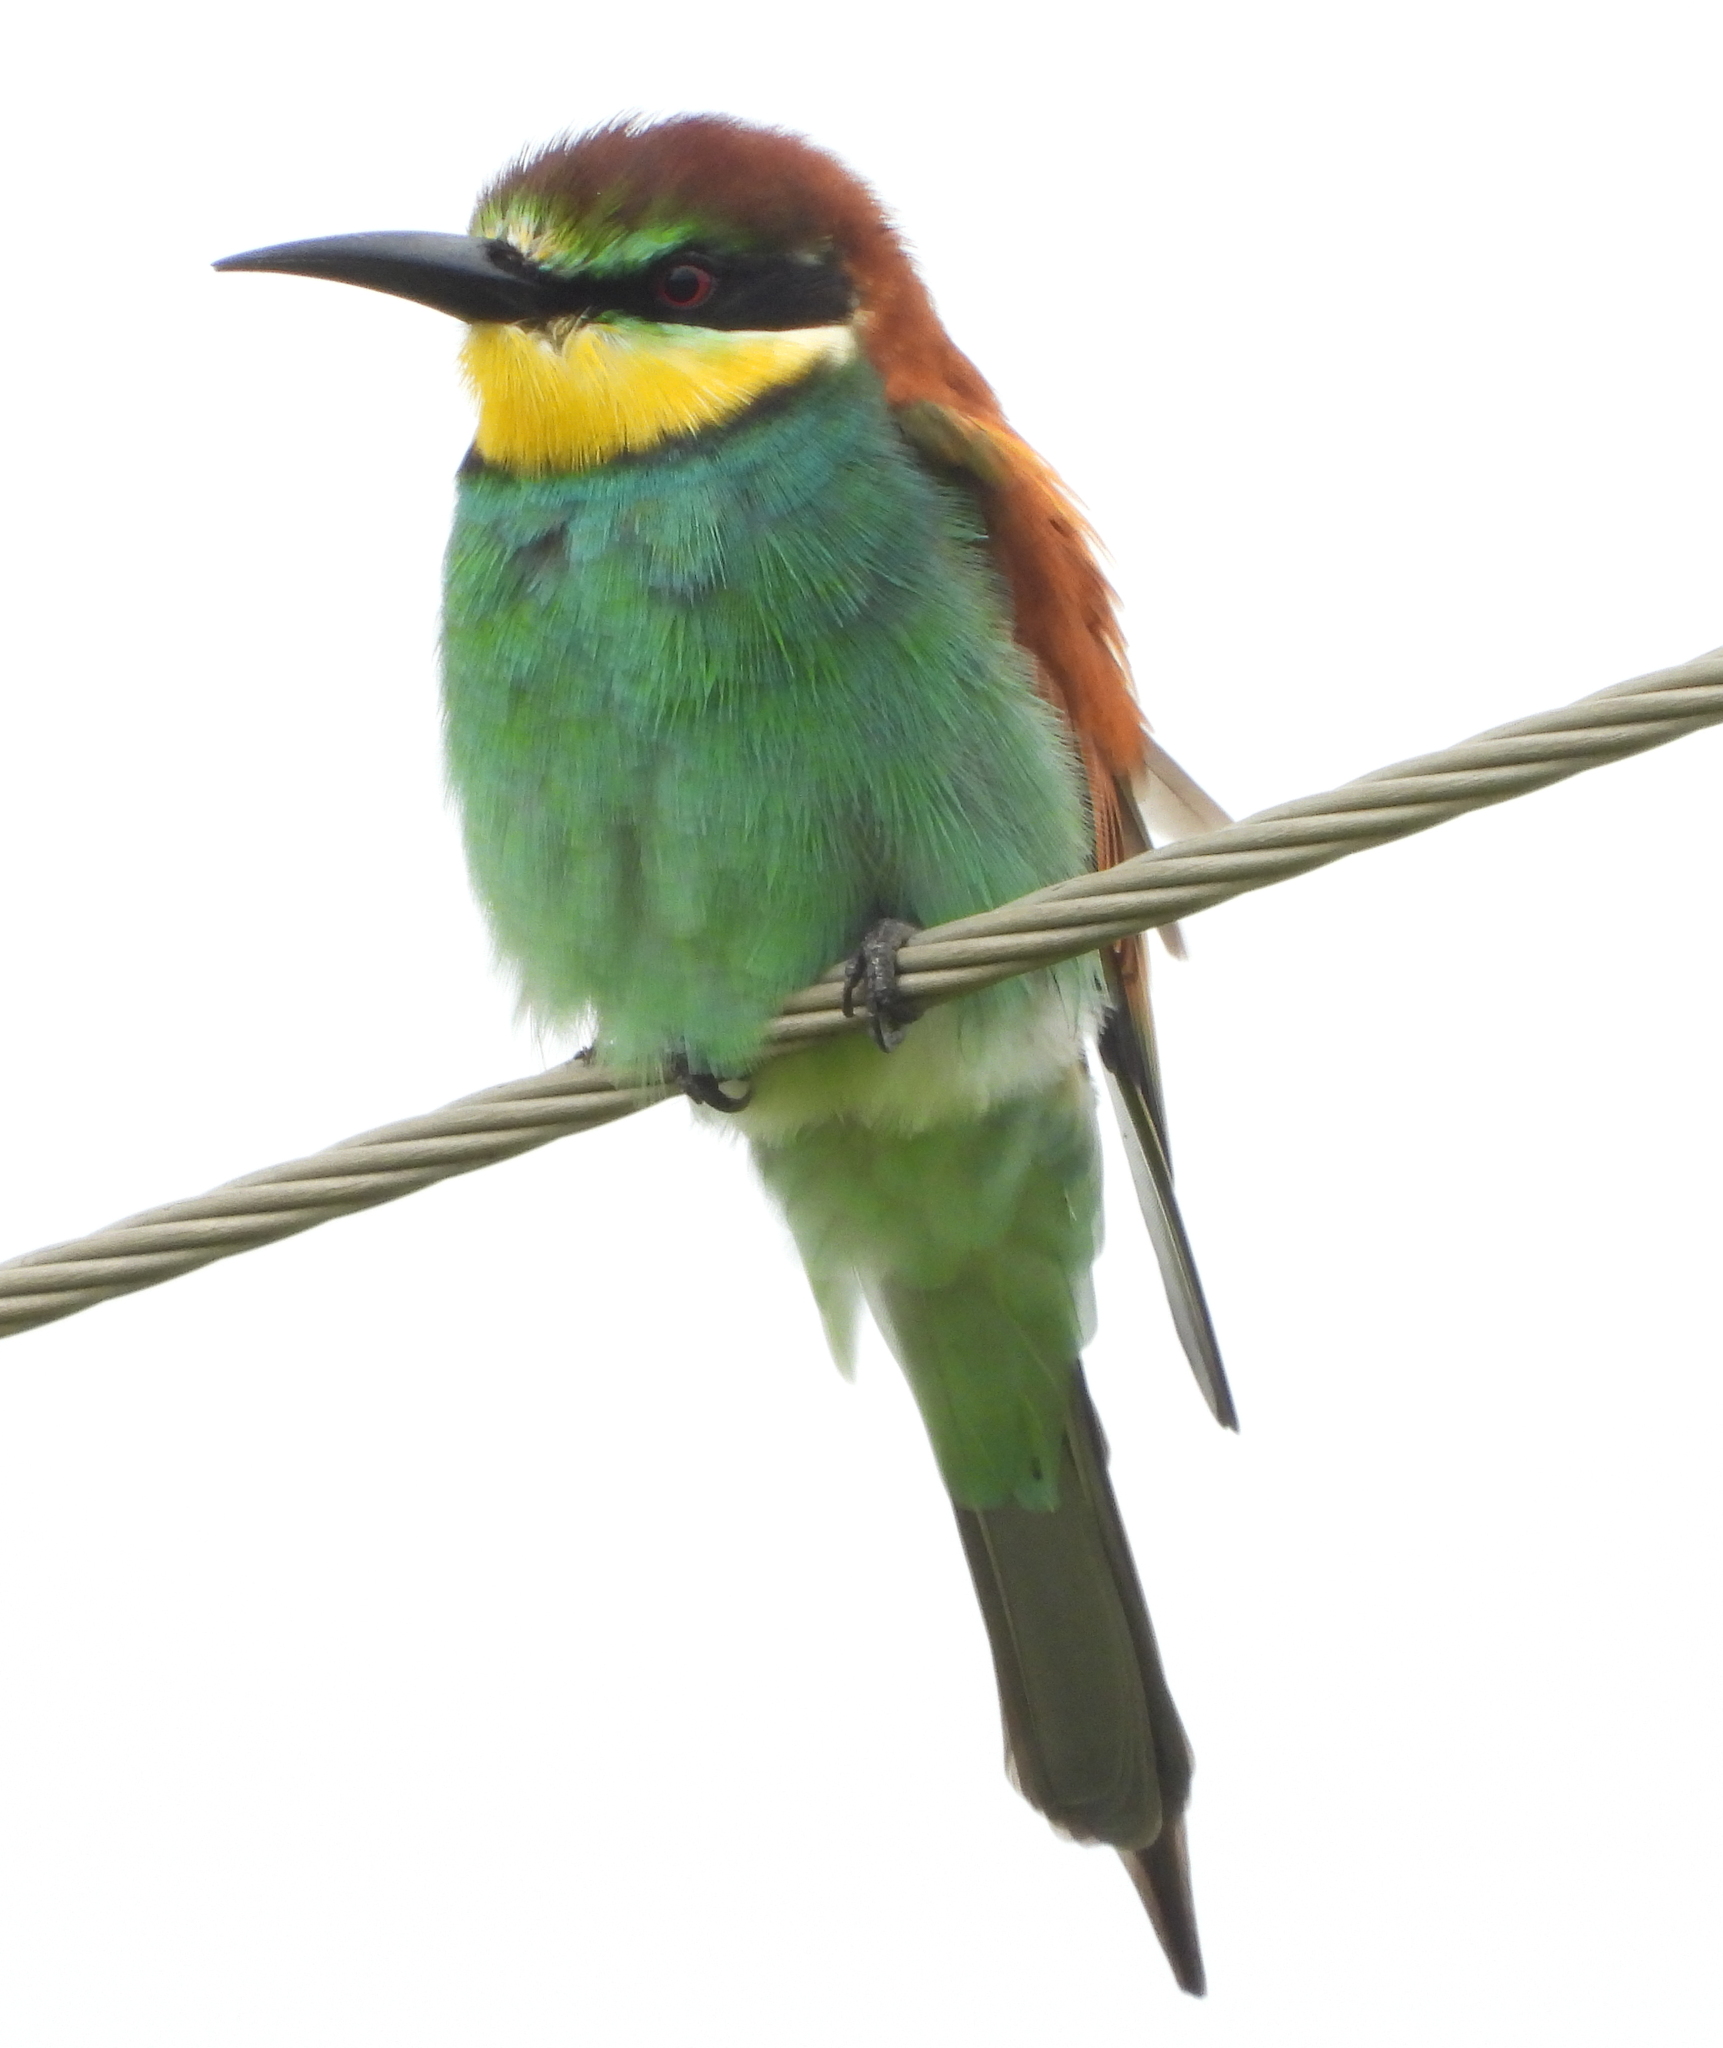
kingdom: Animalia
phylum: Chordata
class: Aves
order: Coraciiformes
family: Meropidae
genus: Merops
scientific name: Merops apiaster
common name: European bee-eater
